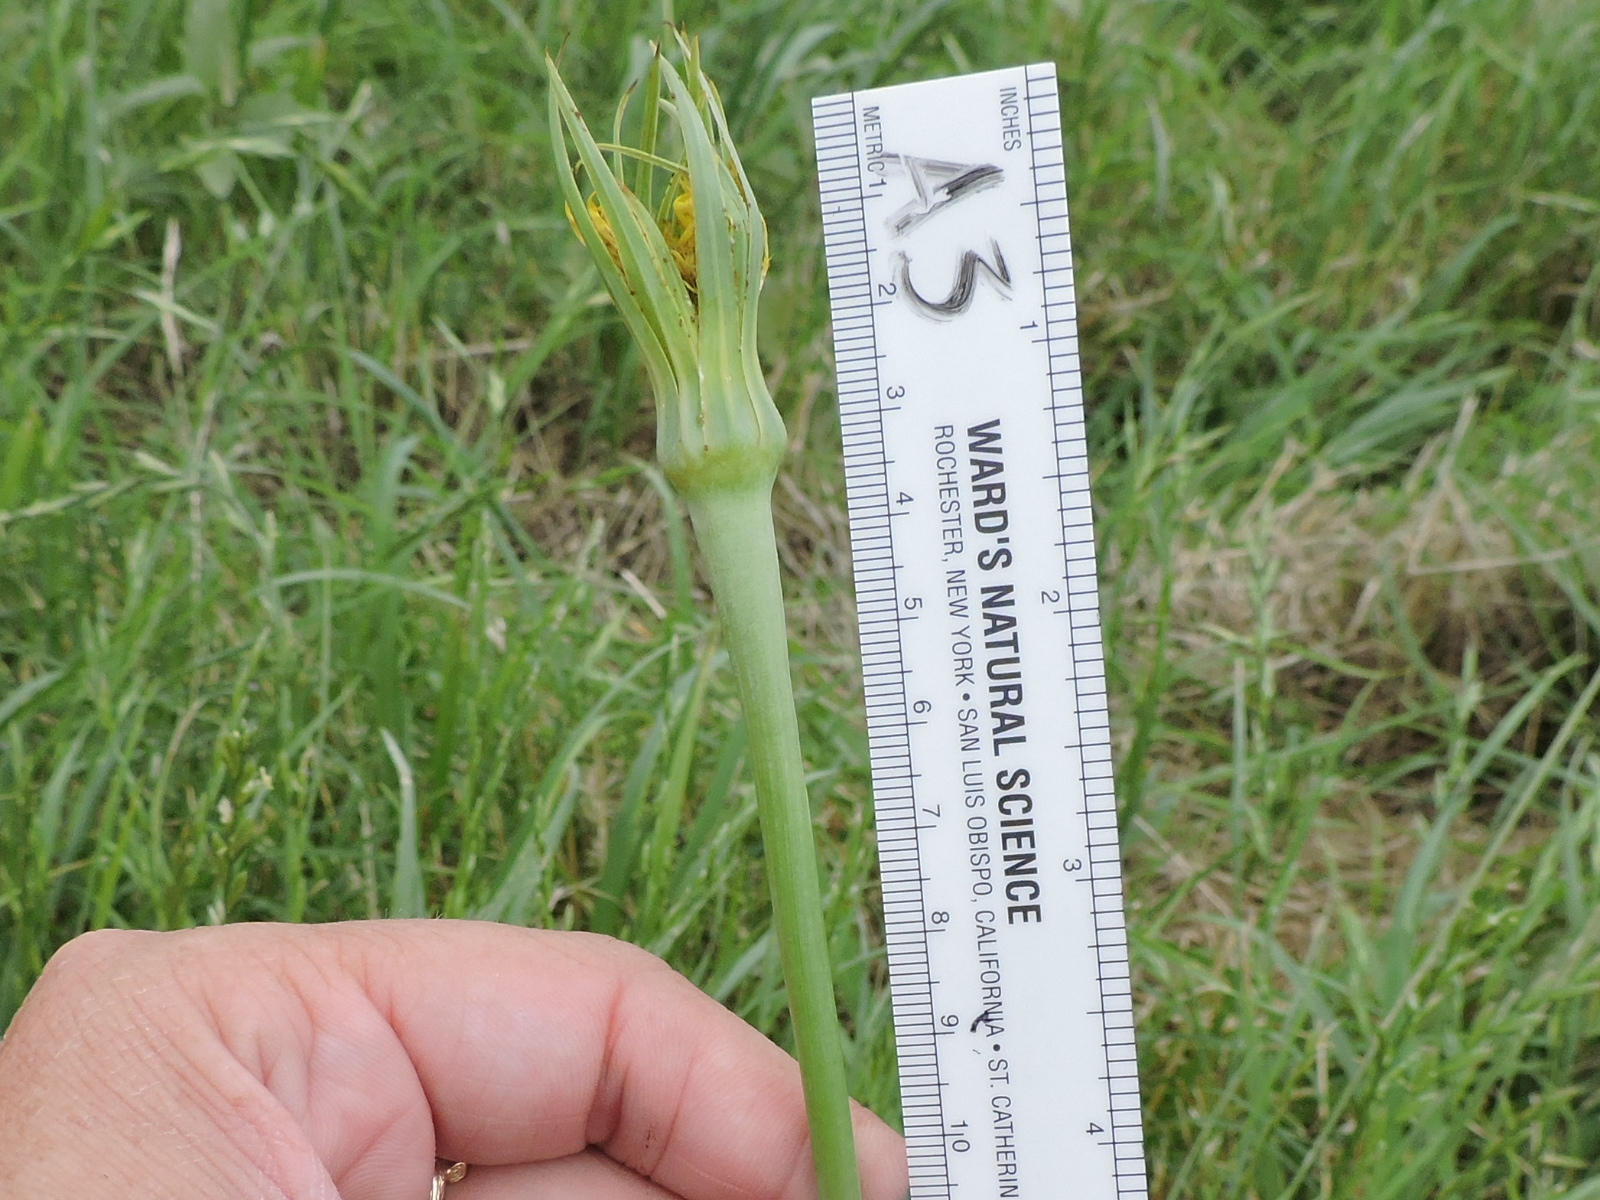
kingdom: Plantae
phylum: Tracheophyta
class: Magnoliopsida
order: Asterales
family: Asteraceae
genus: Tragopogon
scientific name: Tragopogon dubius
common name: Yellow salsify
